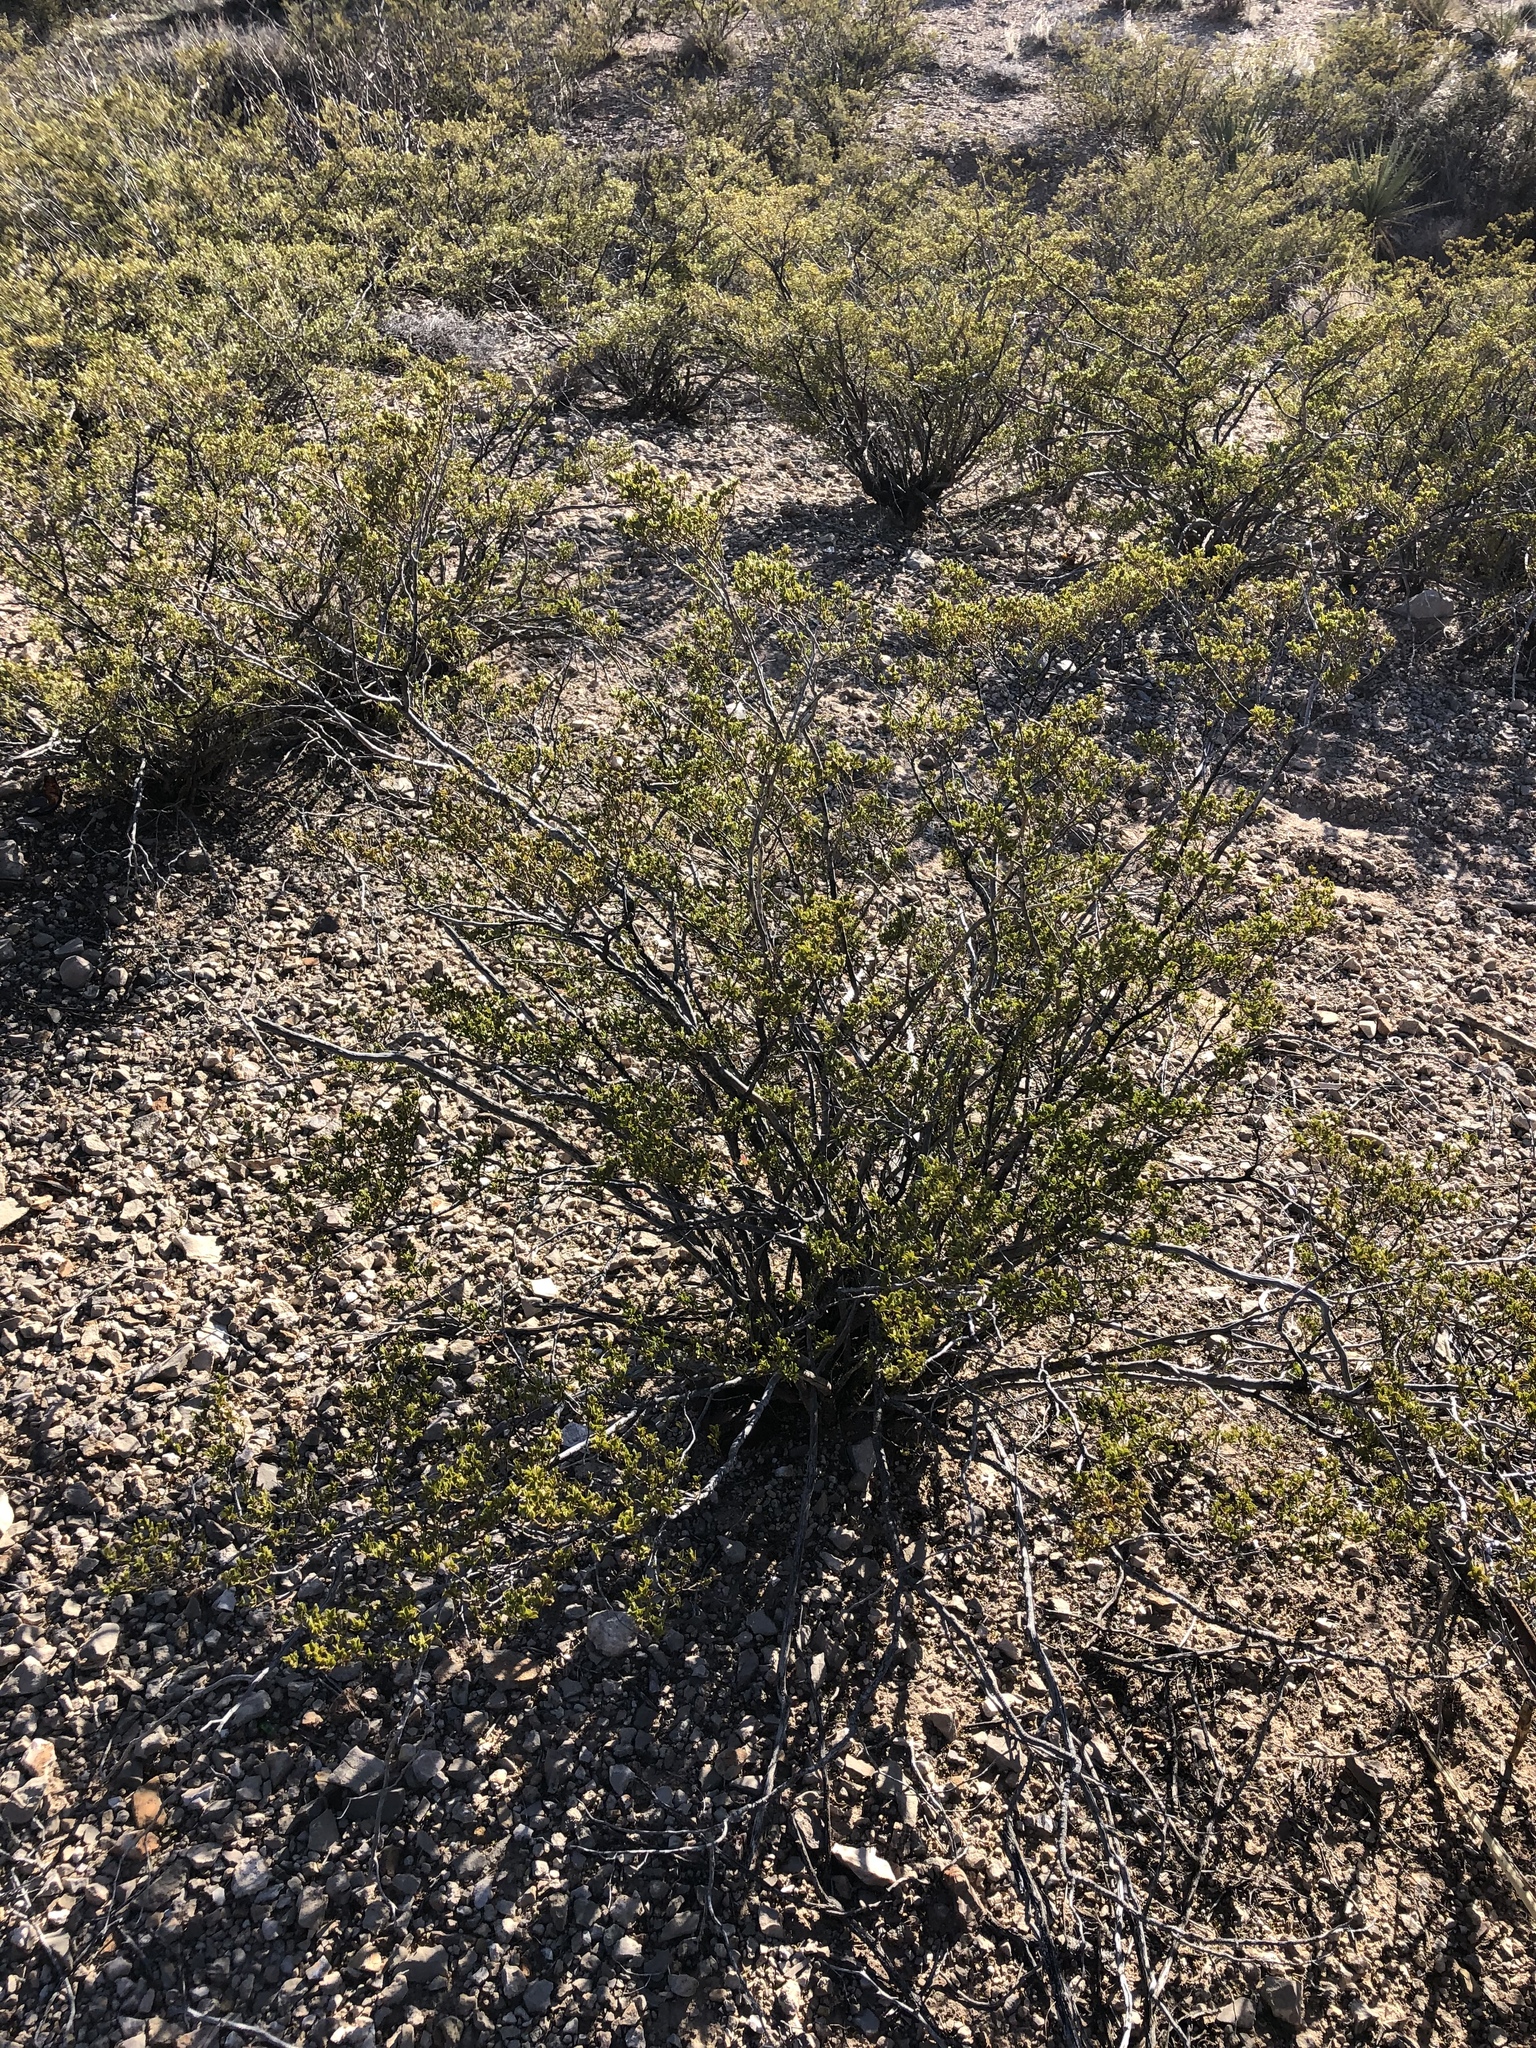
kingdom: Plantae
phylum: Tracheophyta
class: Magnoliopsida
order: Zygophyllales
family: Zygophyllaceae
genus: Larrea
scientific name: Larrea tridentata
